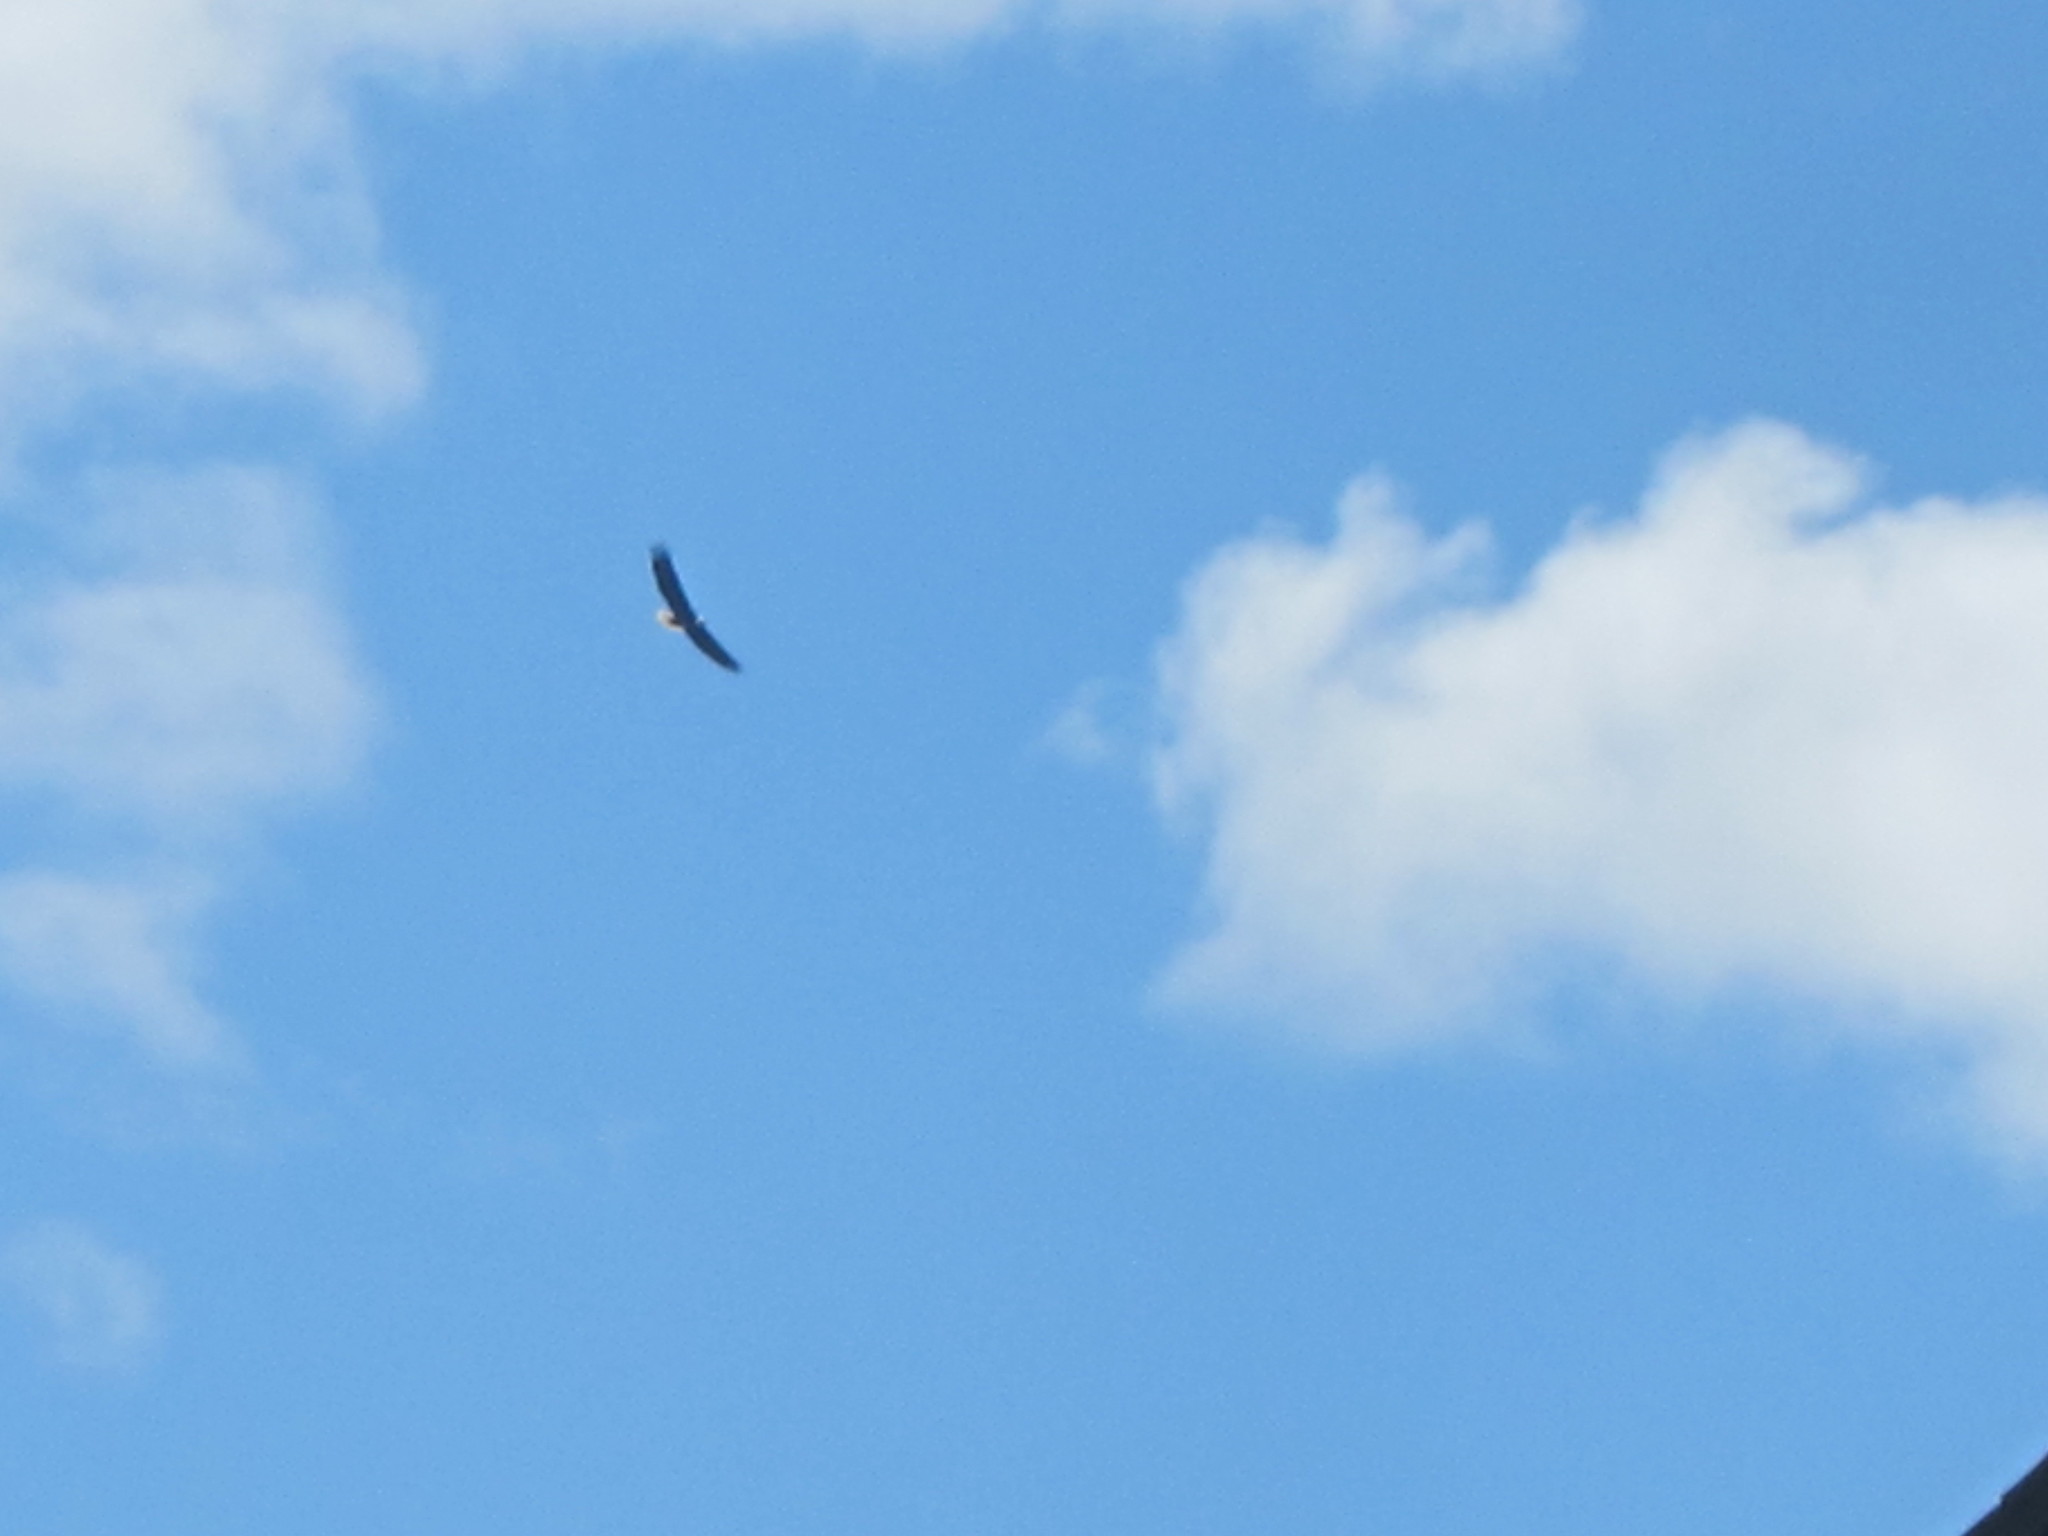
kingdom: Animalia
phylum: Chordata
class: Aves
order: Accipitriformes
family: Accipitridae
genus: Haliaeetus
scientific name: Haliaeetus leucocephalus
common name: Bald eagle
